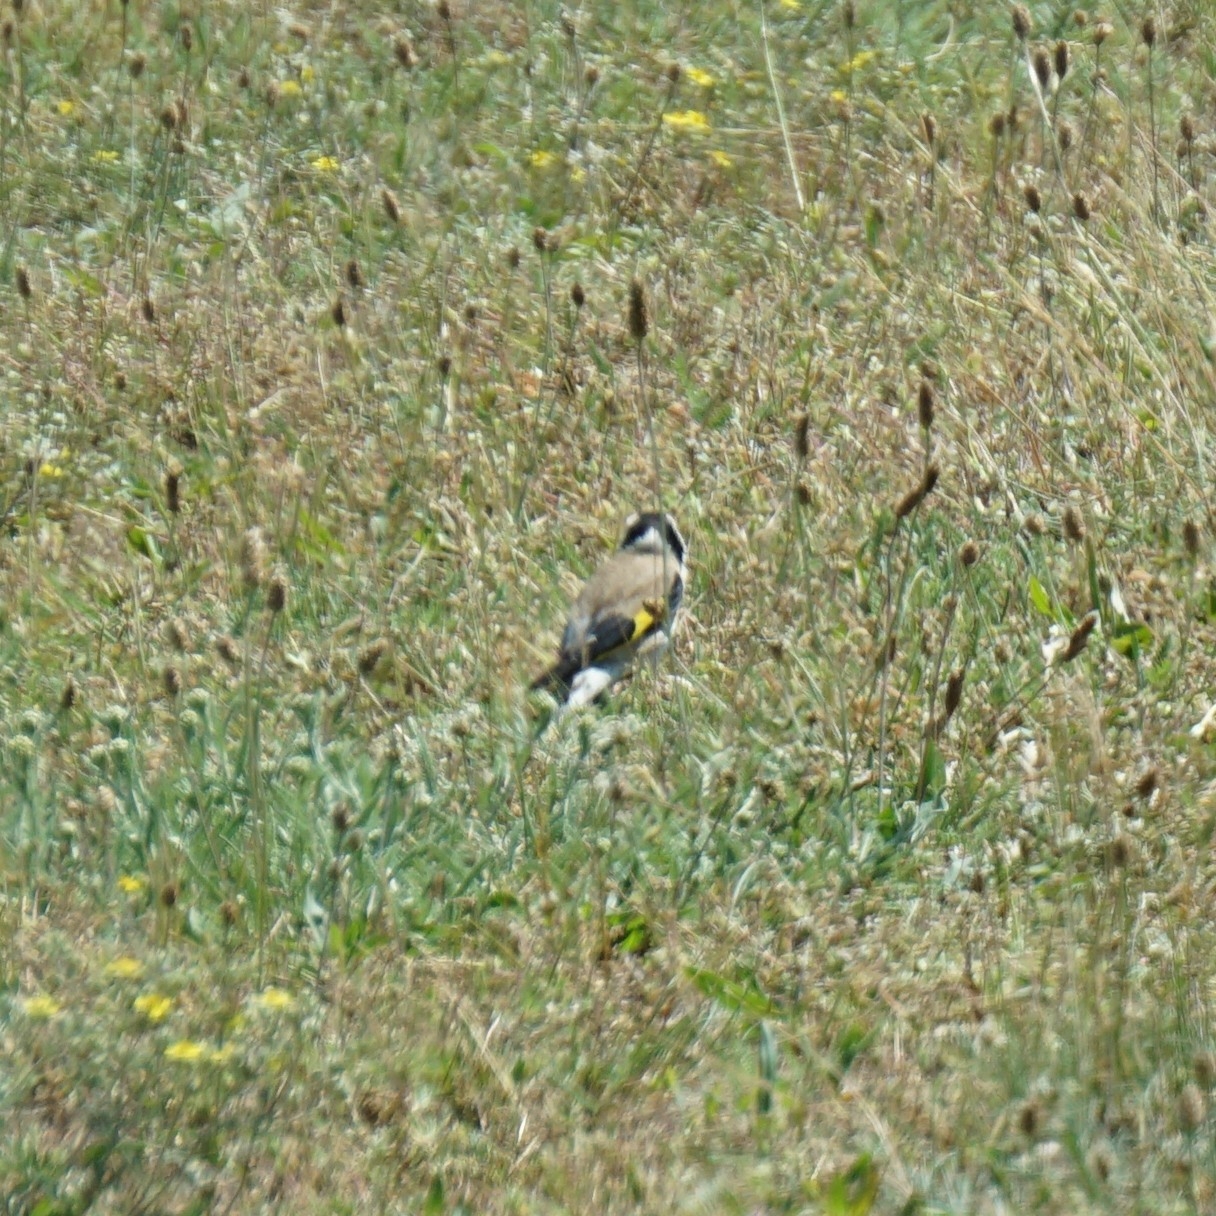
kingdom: Animalia
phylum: Chordata
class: Aves
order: Passeriformes
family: Fringillidae
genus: Carduelis
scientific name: Carduelis carduelis
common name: European goldfinch
